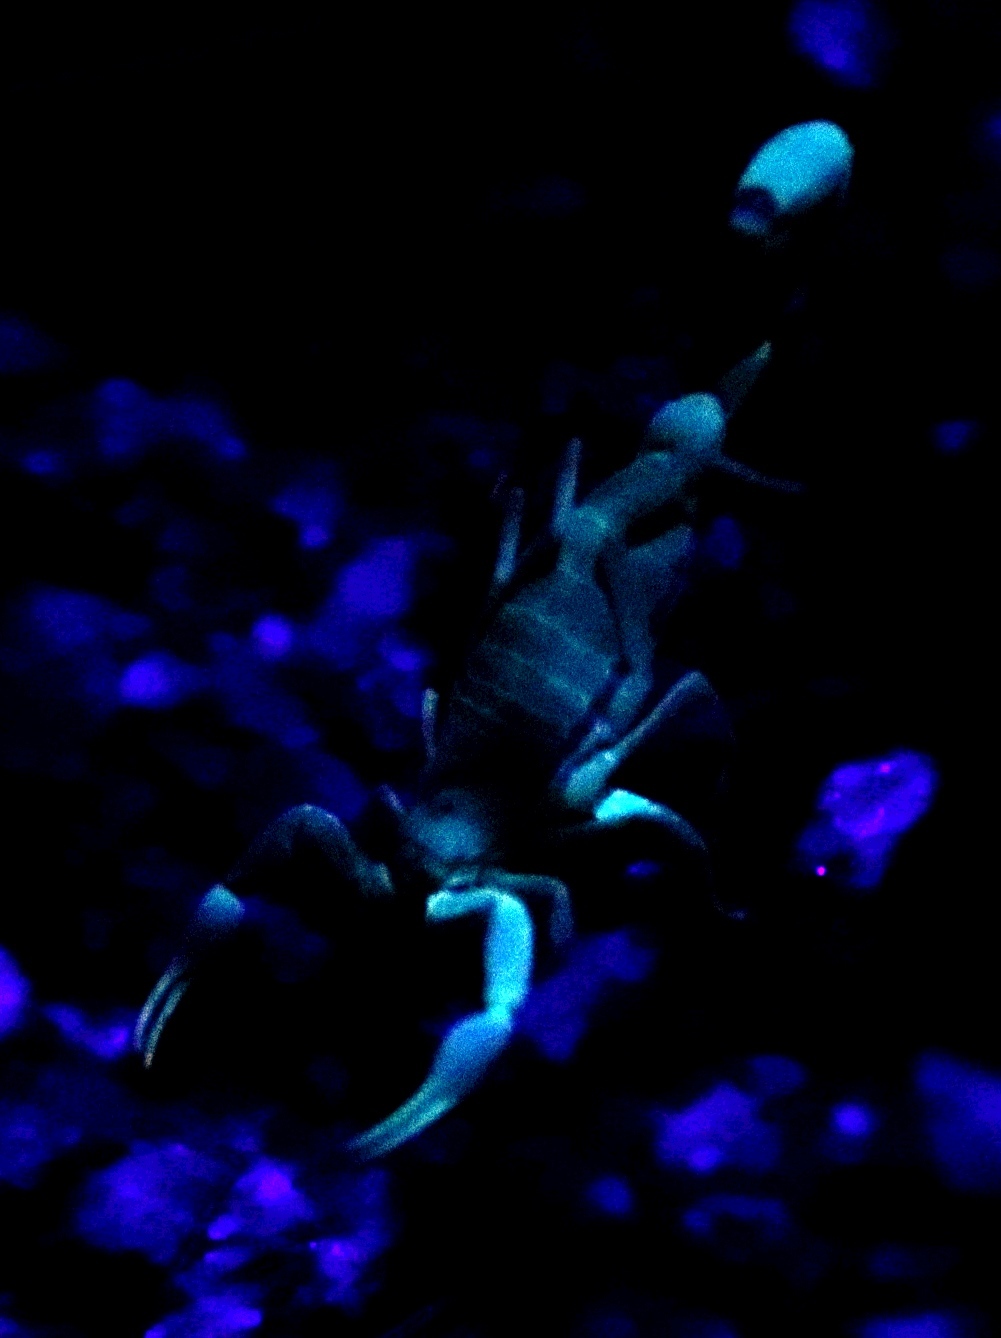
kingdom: Animalia
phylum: Arthropoda
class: Arachnida
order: Scorpiones
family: Buthidae
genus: Uroplectes
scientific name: Uroplectes lineatus
